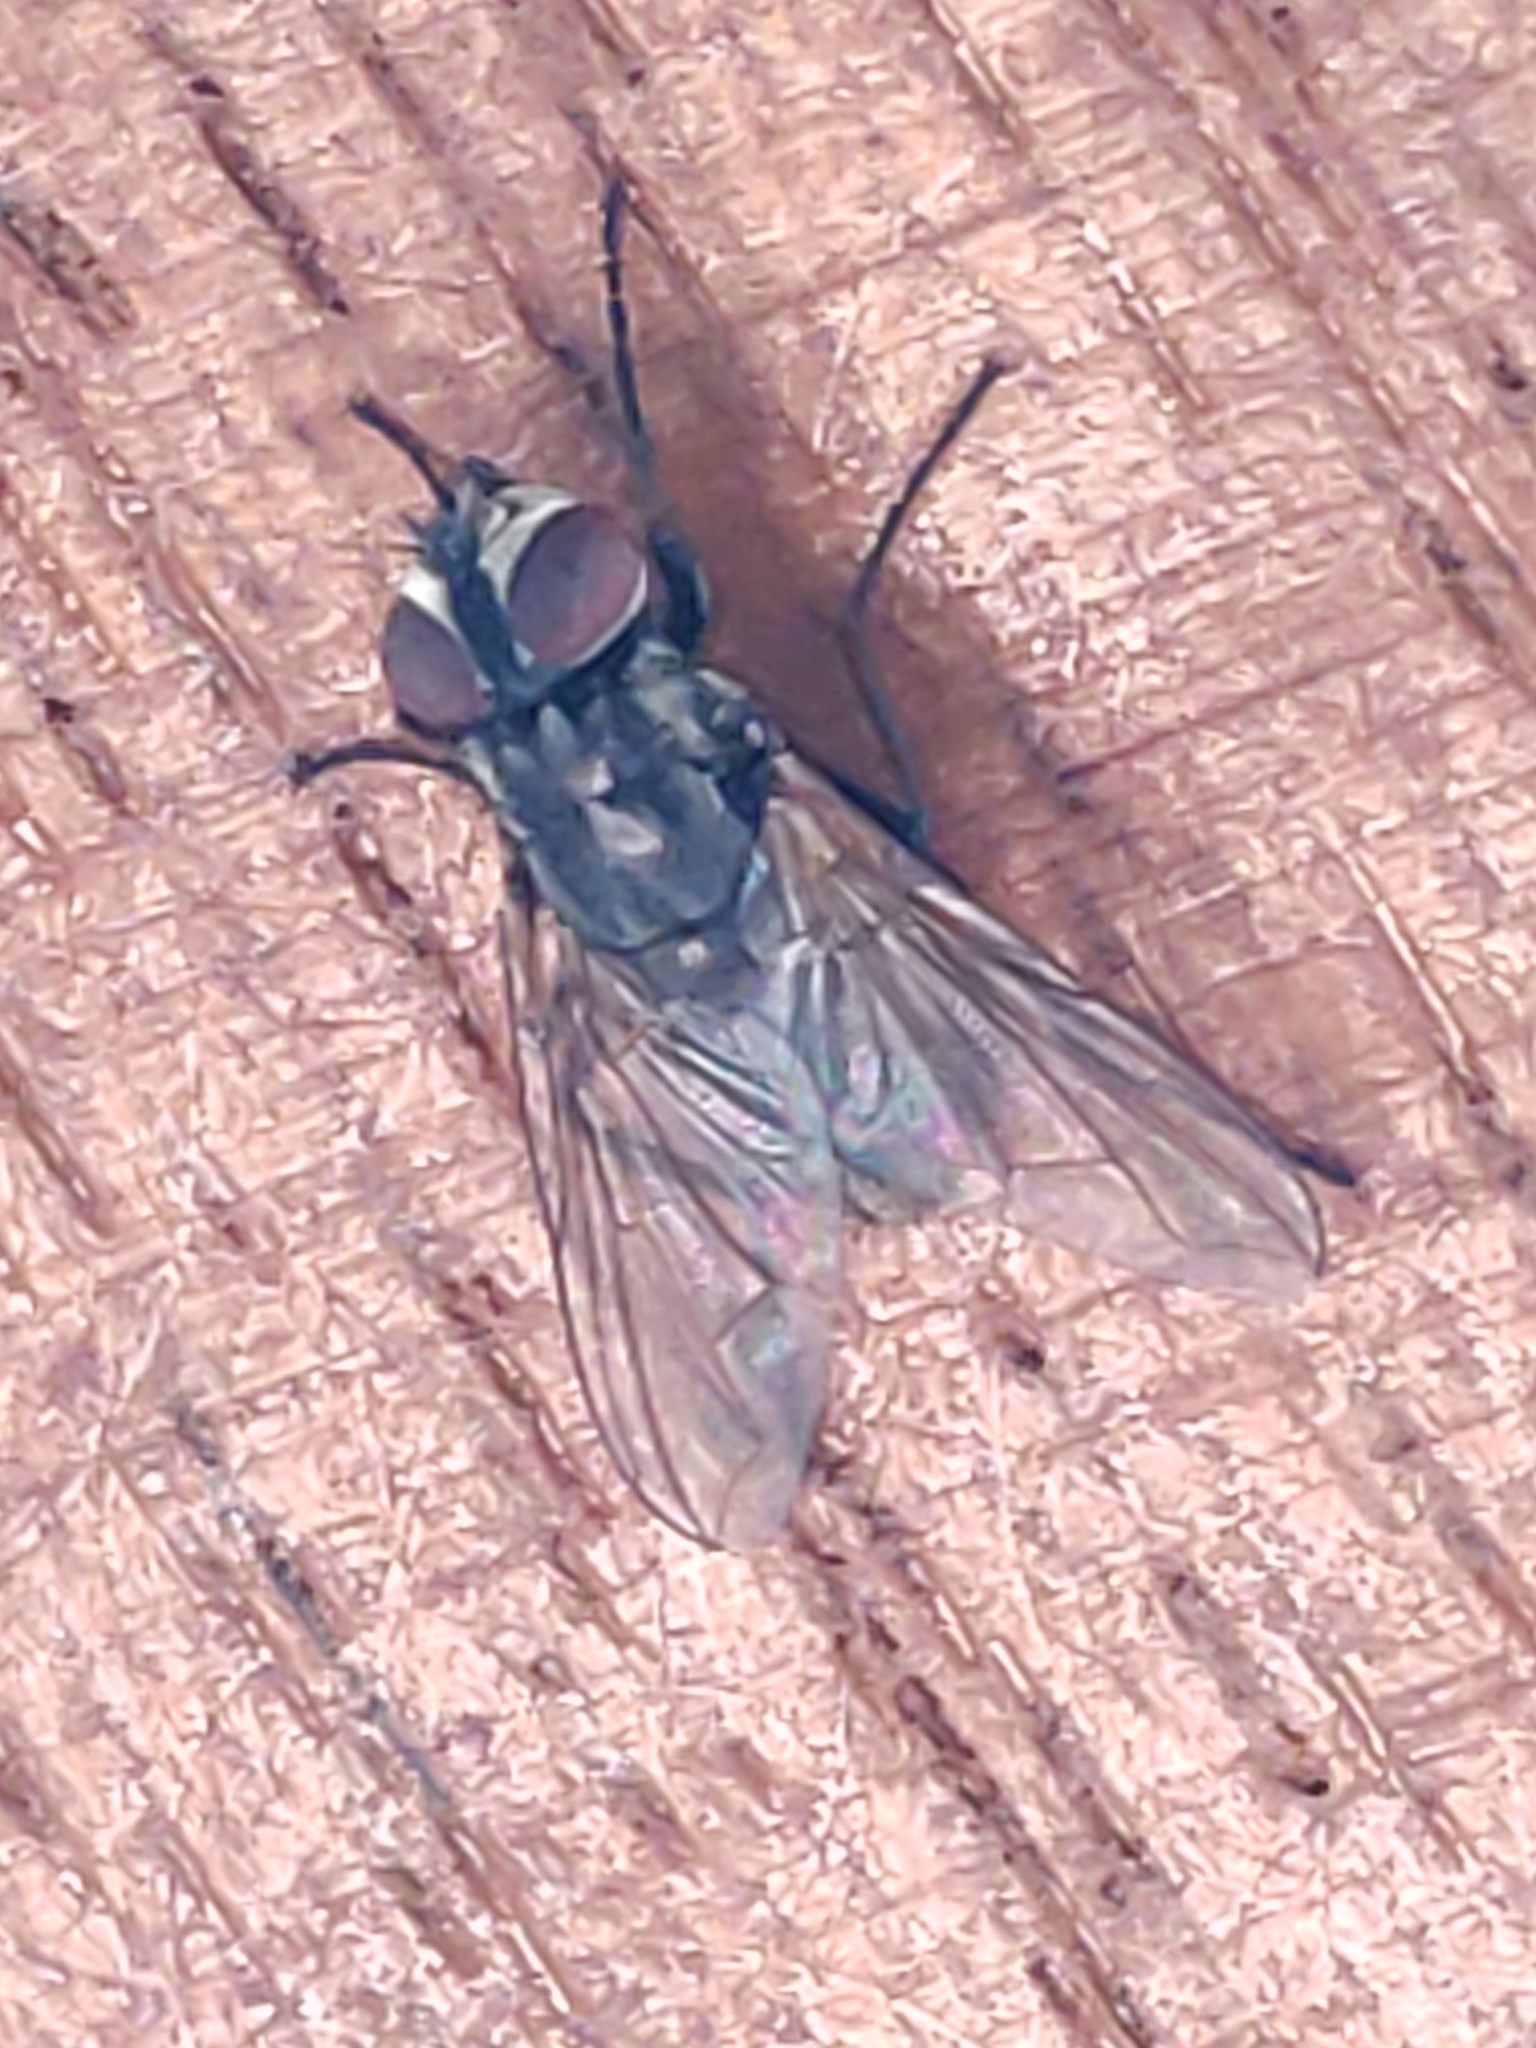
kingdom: Animalia
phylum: Arthropoda
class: Insecta
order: Diptera
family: Muscidae
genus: Musca
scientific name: Musca domestica
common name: House fly
